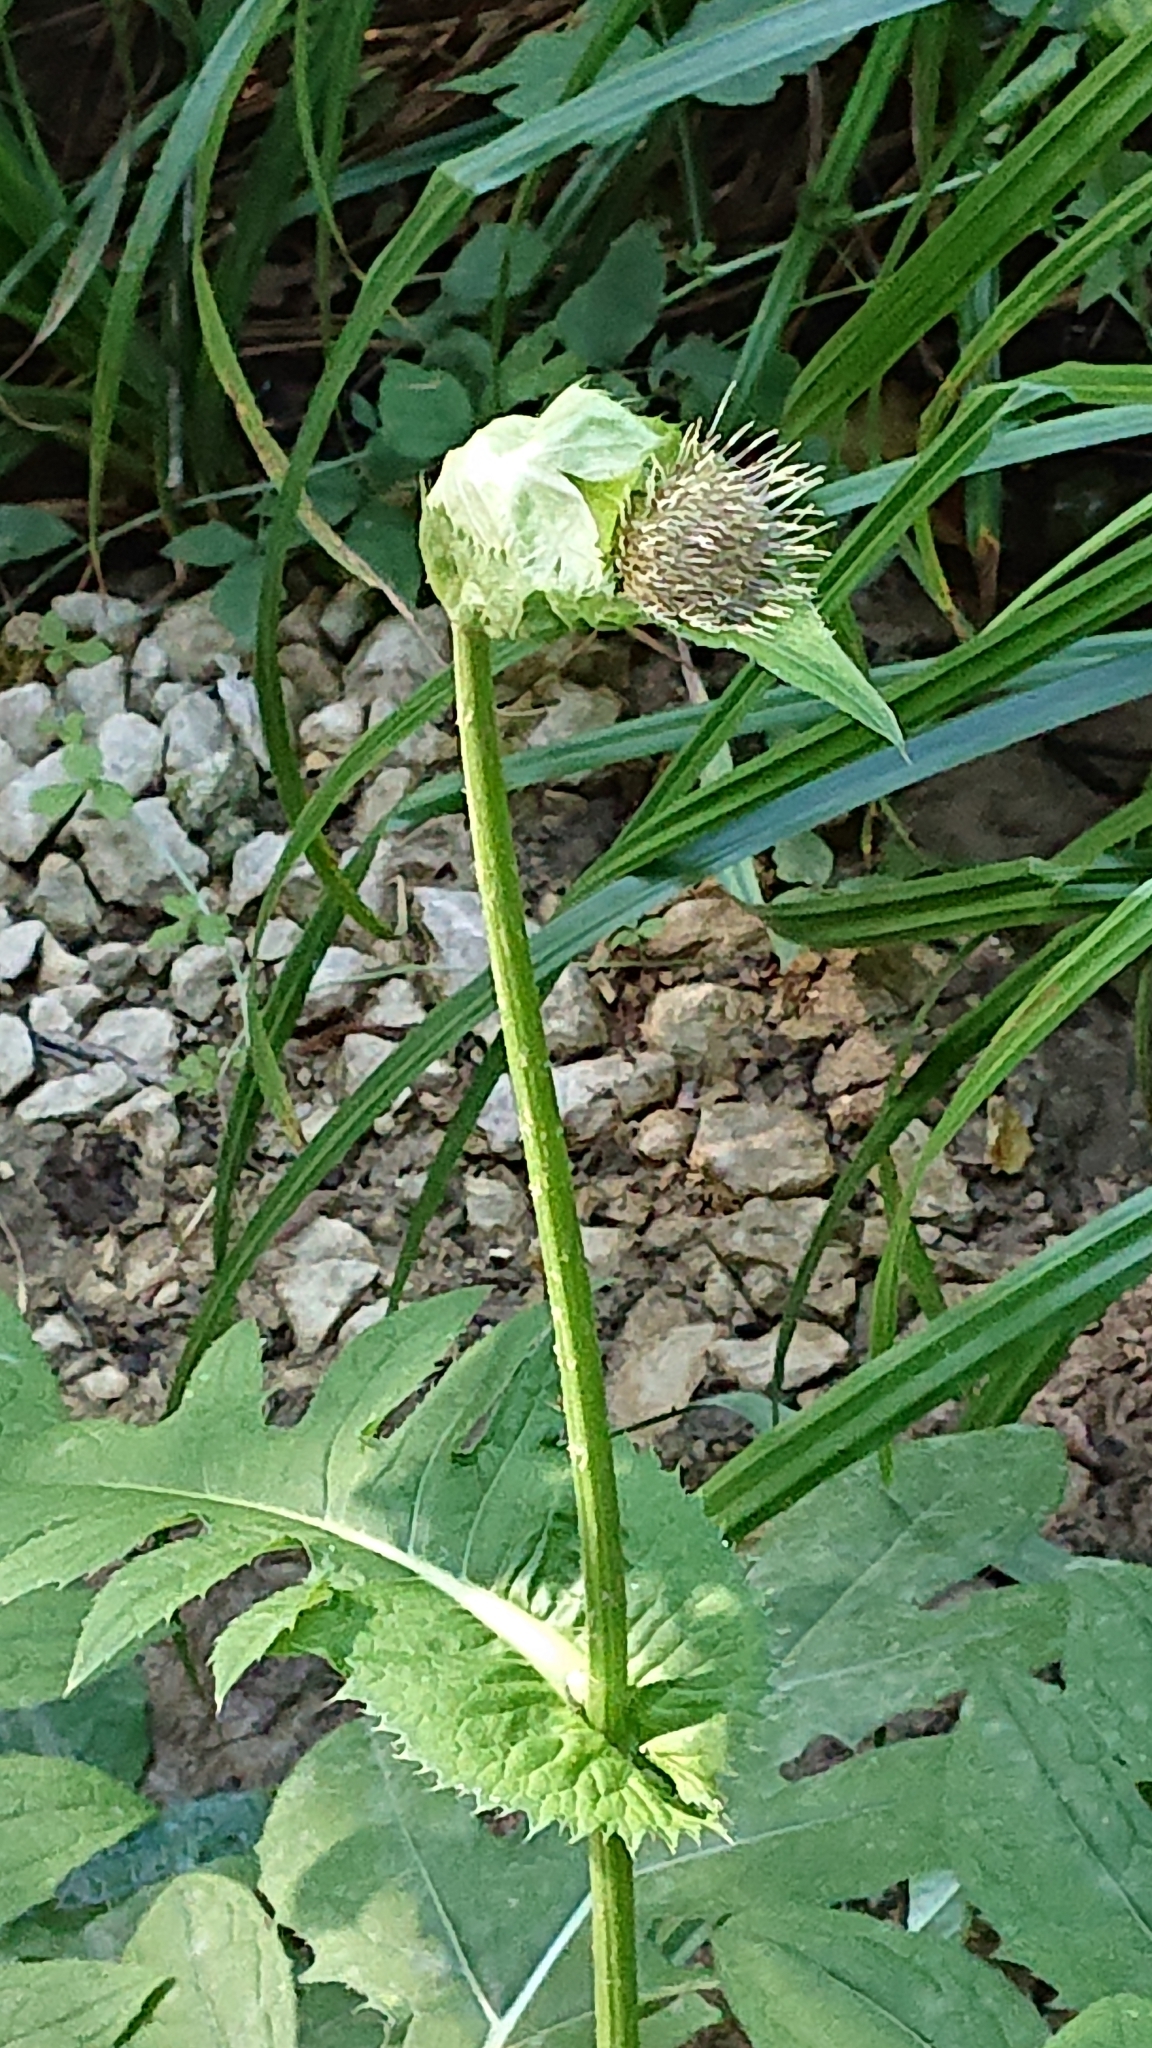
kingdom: Plantae
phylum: Tracheophyta
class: Magnoliopsida
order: Asterales
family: Asteraceae
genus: Cirsium
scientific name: Cirsium oleraceum
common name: Cabbage thistle
